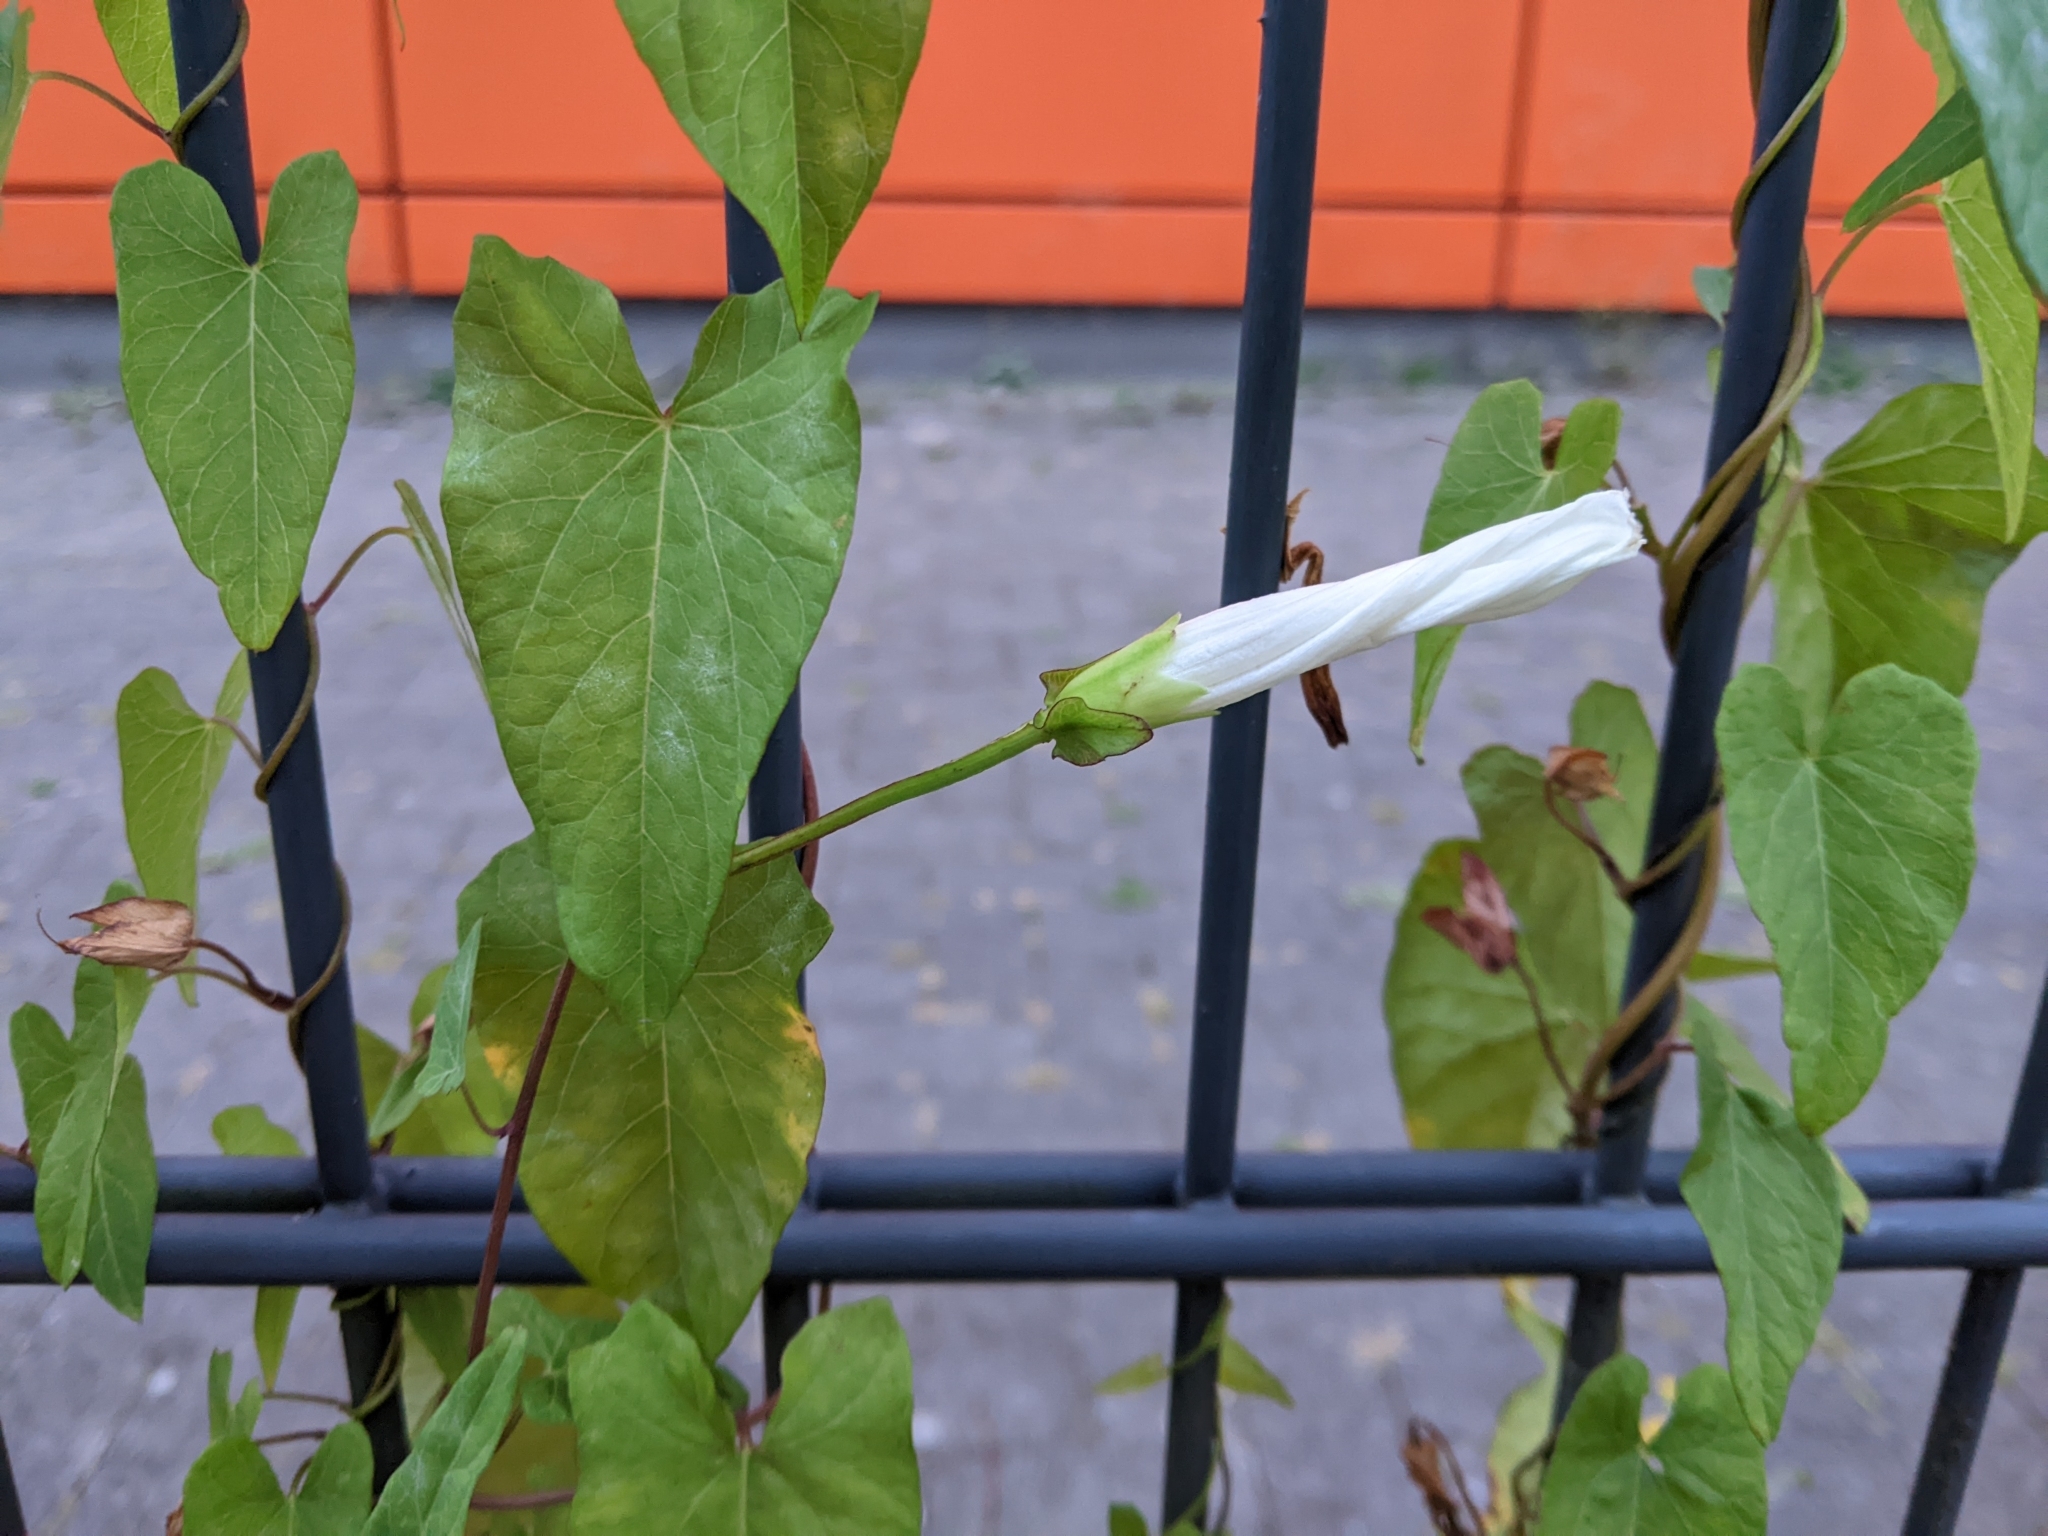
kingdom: Plantae
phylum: Tracheophyta
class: Magnoliopsida
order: Solanales
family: Convolvulaceae
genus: Calystegia
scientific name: Calystegia sepium
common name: Hedge bindweed
